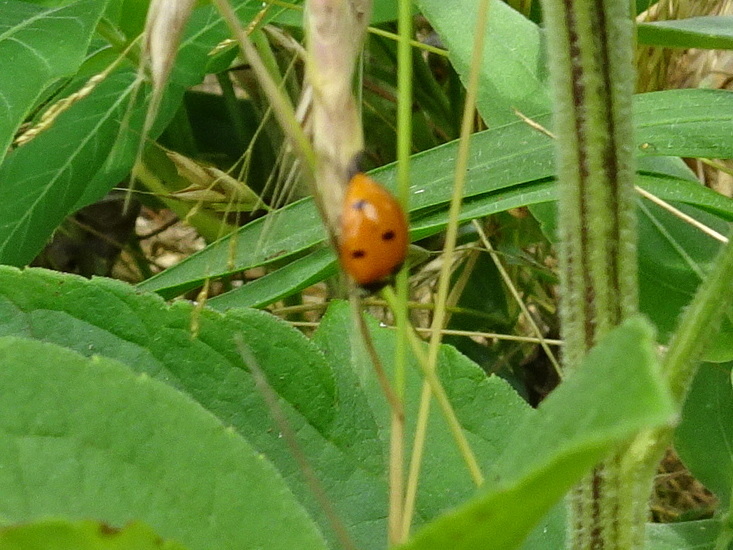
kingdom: Animalia
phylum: Arthropoda
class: Insecta
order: Coleoptera
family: Coccinellidae
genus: Coccinella
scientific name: Coccinella septempunctata
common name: Sevenspotted lady beetle
